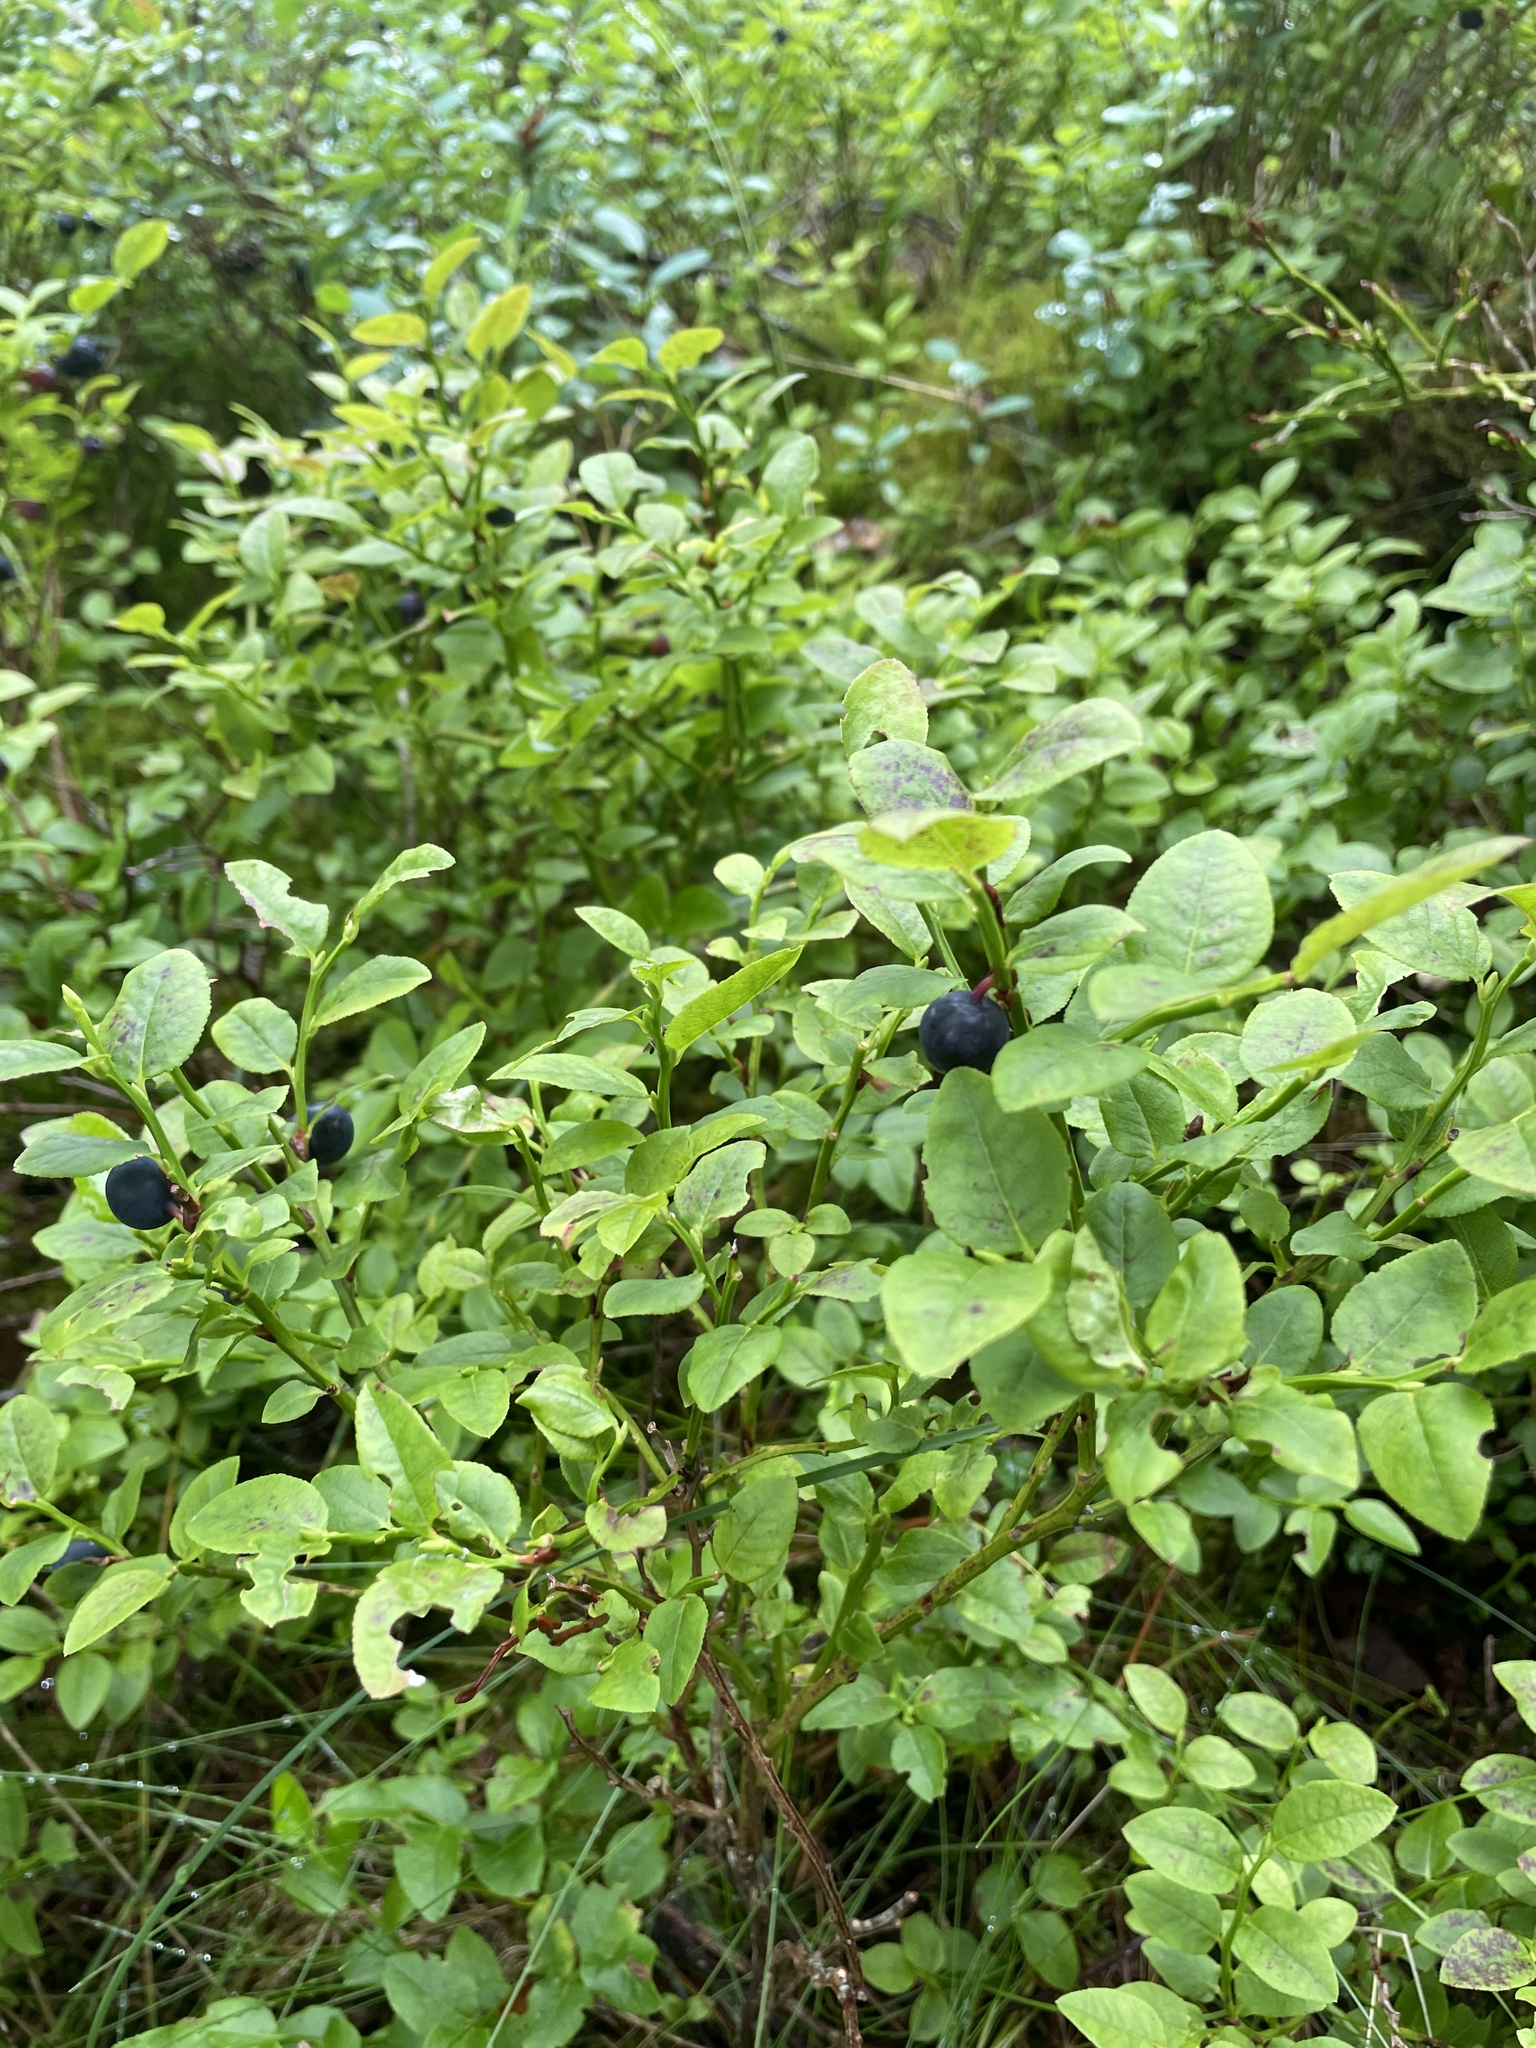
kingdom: Plantae
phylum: Tracheophyta
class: Magnoliopsida
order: Ericales
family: Ericaceae
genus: Vaccinium
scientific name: Vaccinium myrtillus
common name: Bilberry
